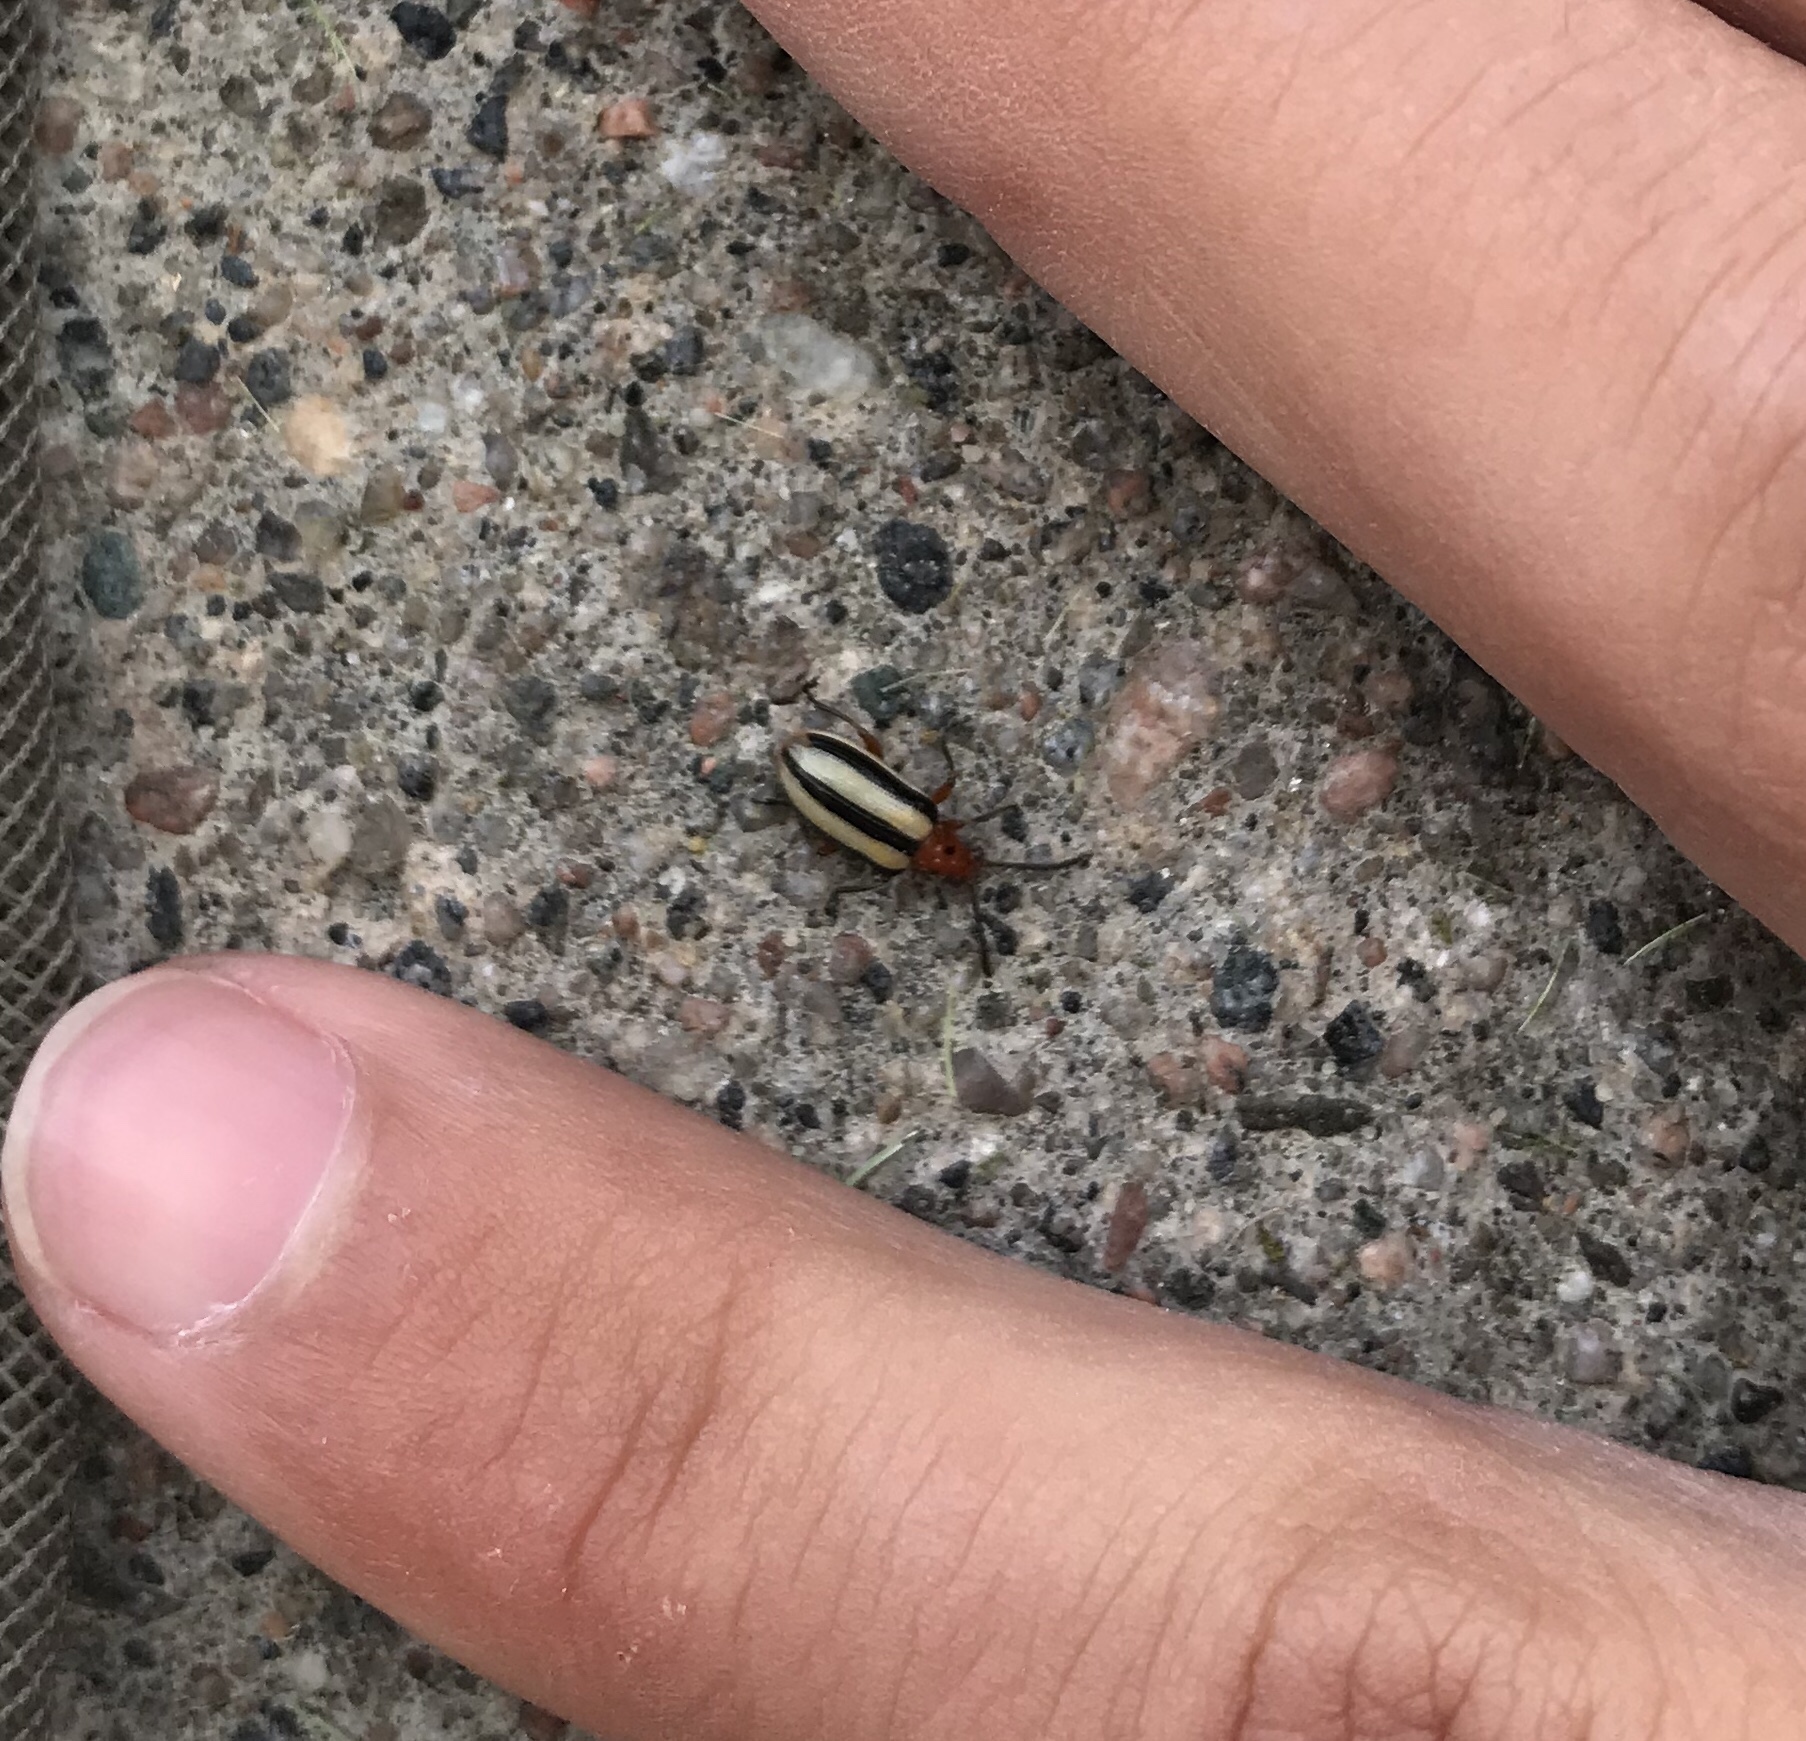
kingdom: Animalia
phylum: Arthropoda
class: Insecta
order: Coleoptera
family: Chrysomelidae
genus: Lema
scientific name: Lema daturaphila
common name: Leaf beetle
